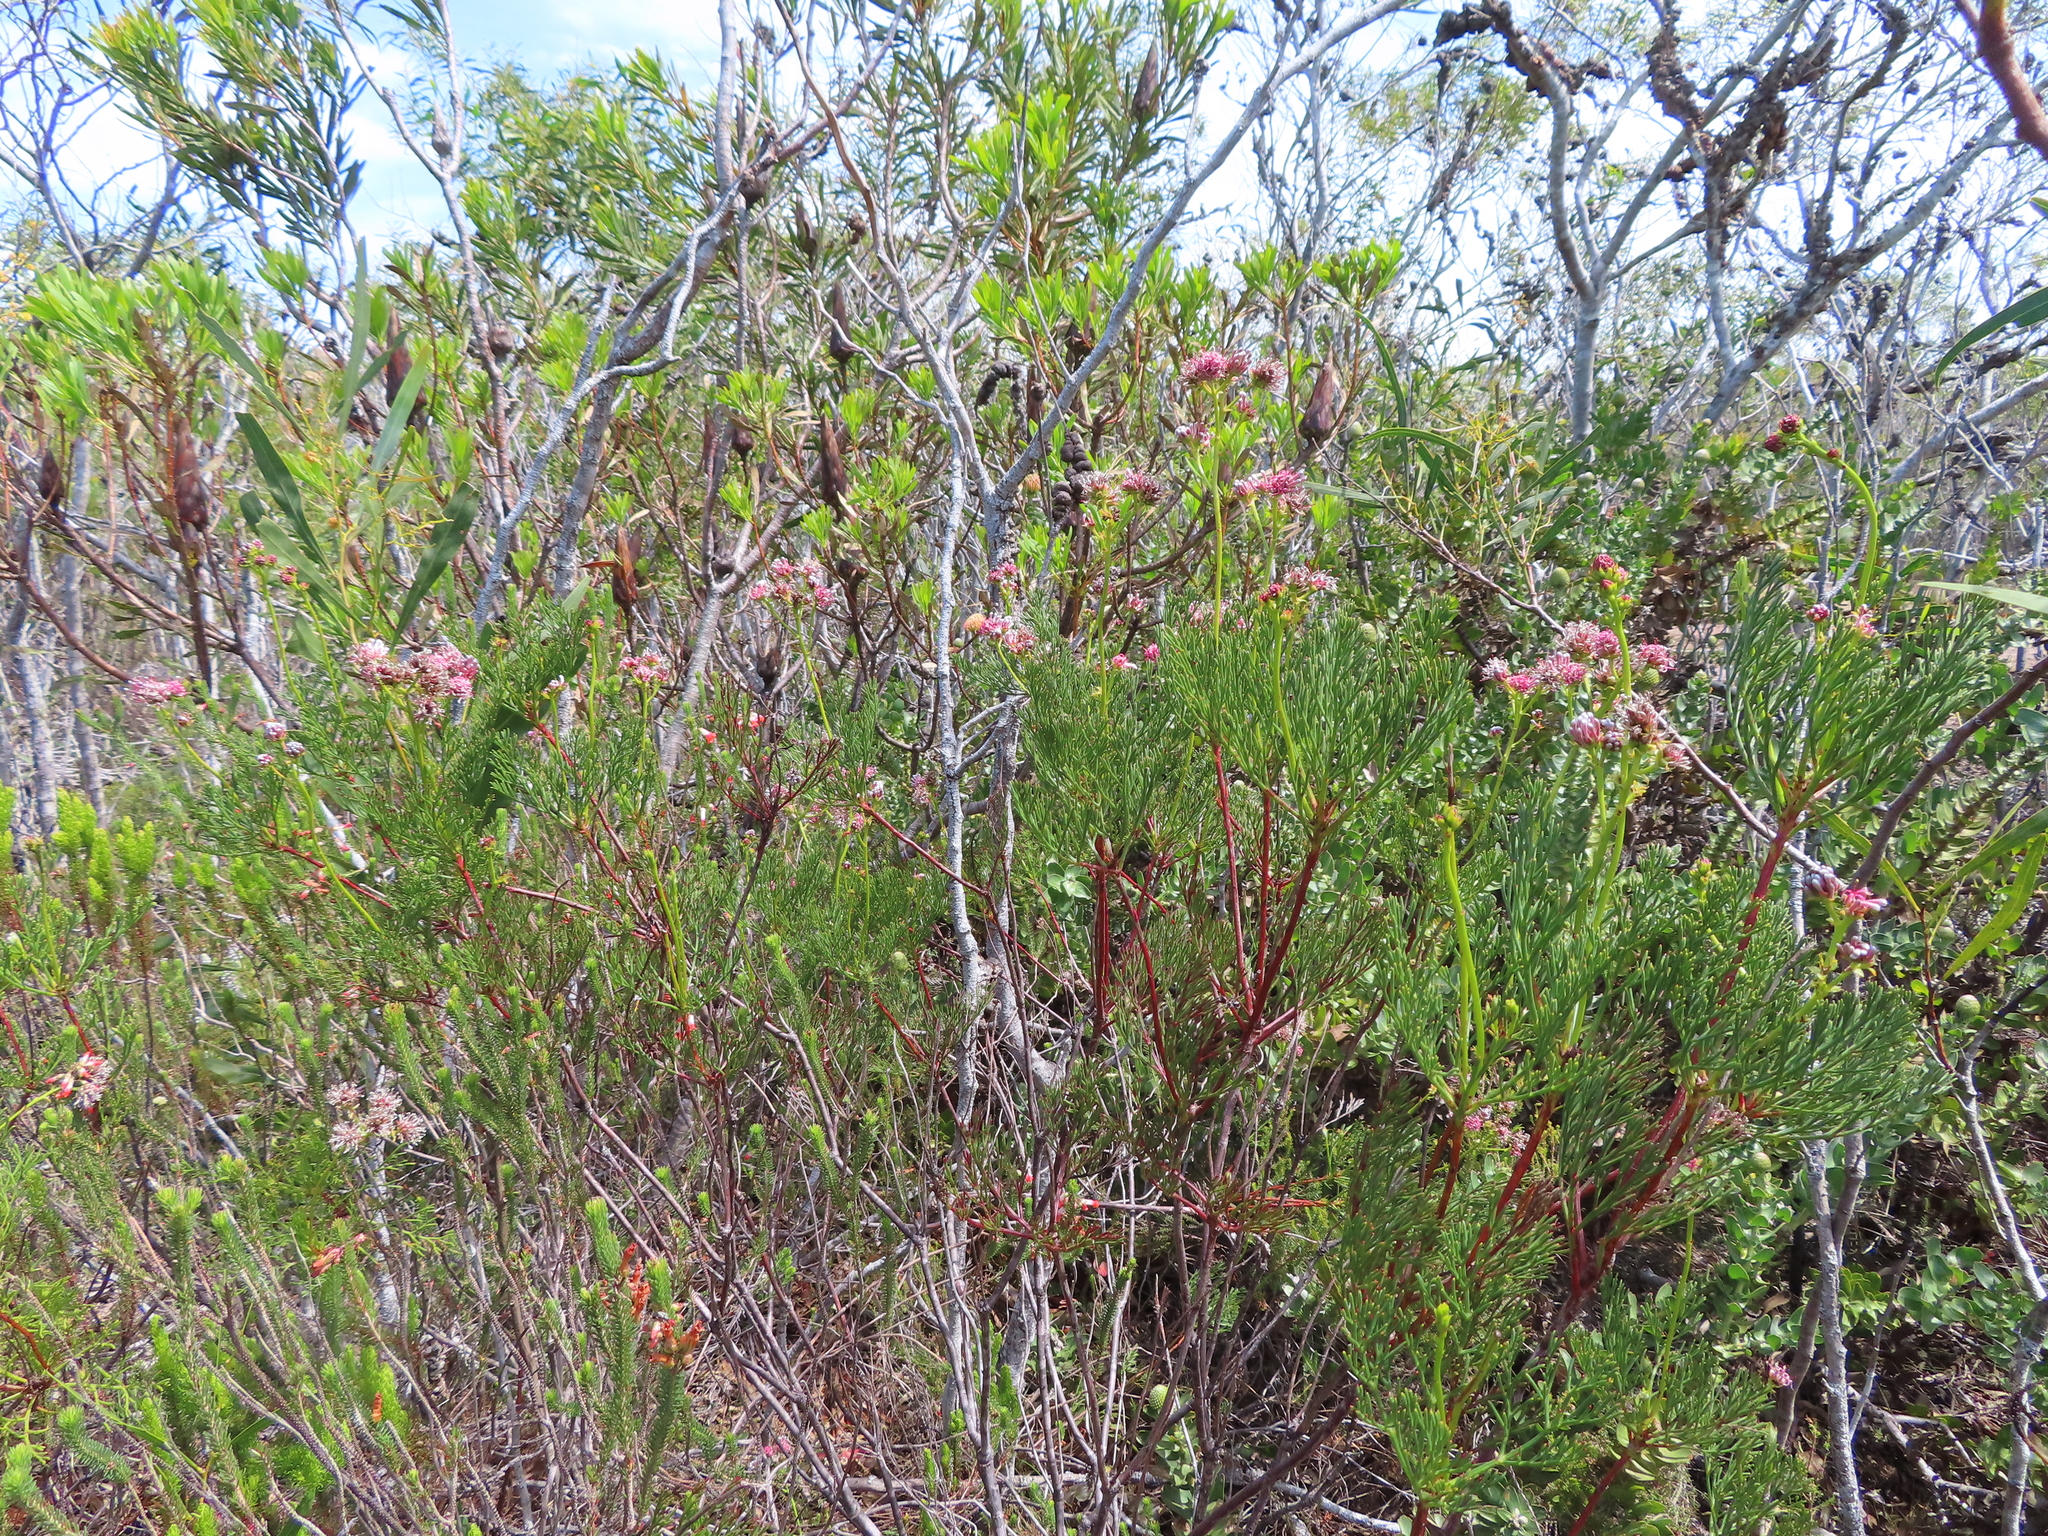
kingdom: Plantae
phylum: Tracheophyta
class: Magnoliopsida
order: Proteales
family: Proteaceae
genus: Serruria
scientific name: Serruria elongata
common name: Long-stalk spiderhead
